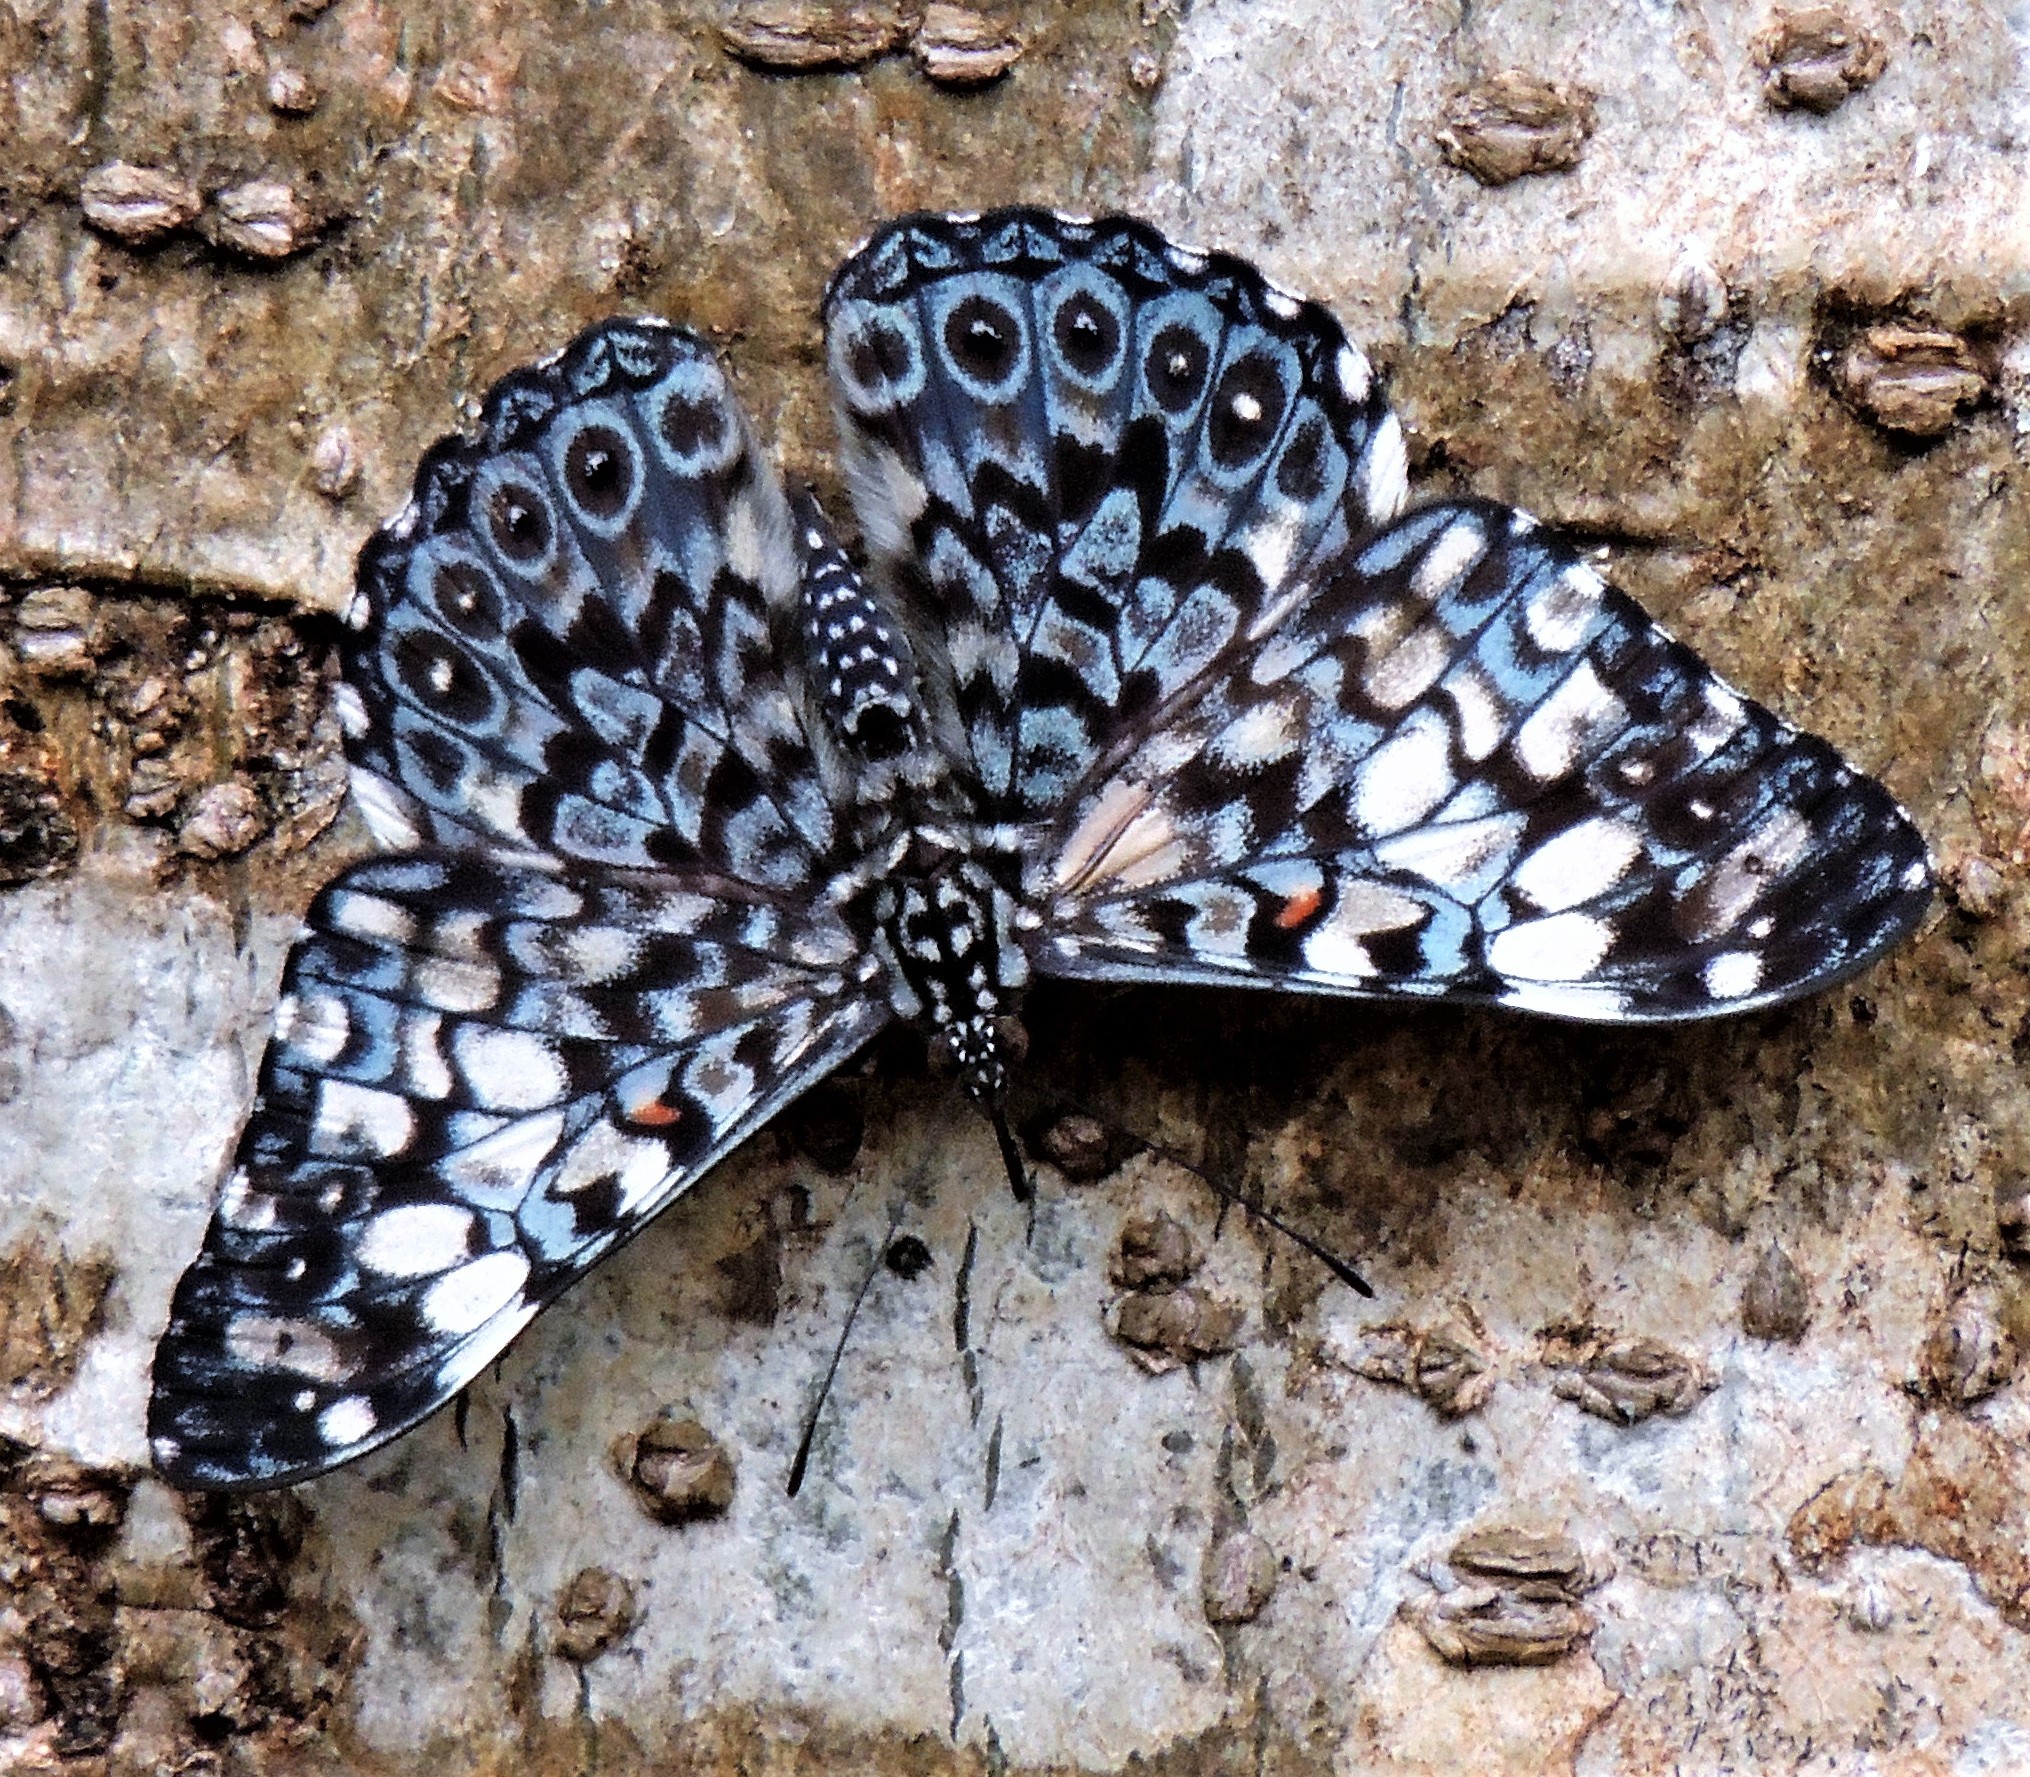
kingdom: Animalia
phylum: Arthropoda
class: Insecta
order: Lepidoptera
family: Nymphalidae
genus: Hamadryas
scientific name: Hamadryas fornax
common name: Orange cracker
